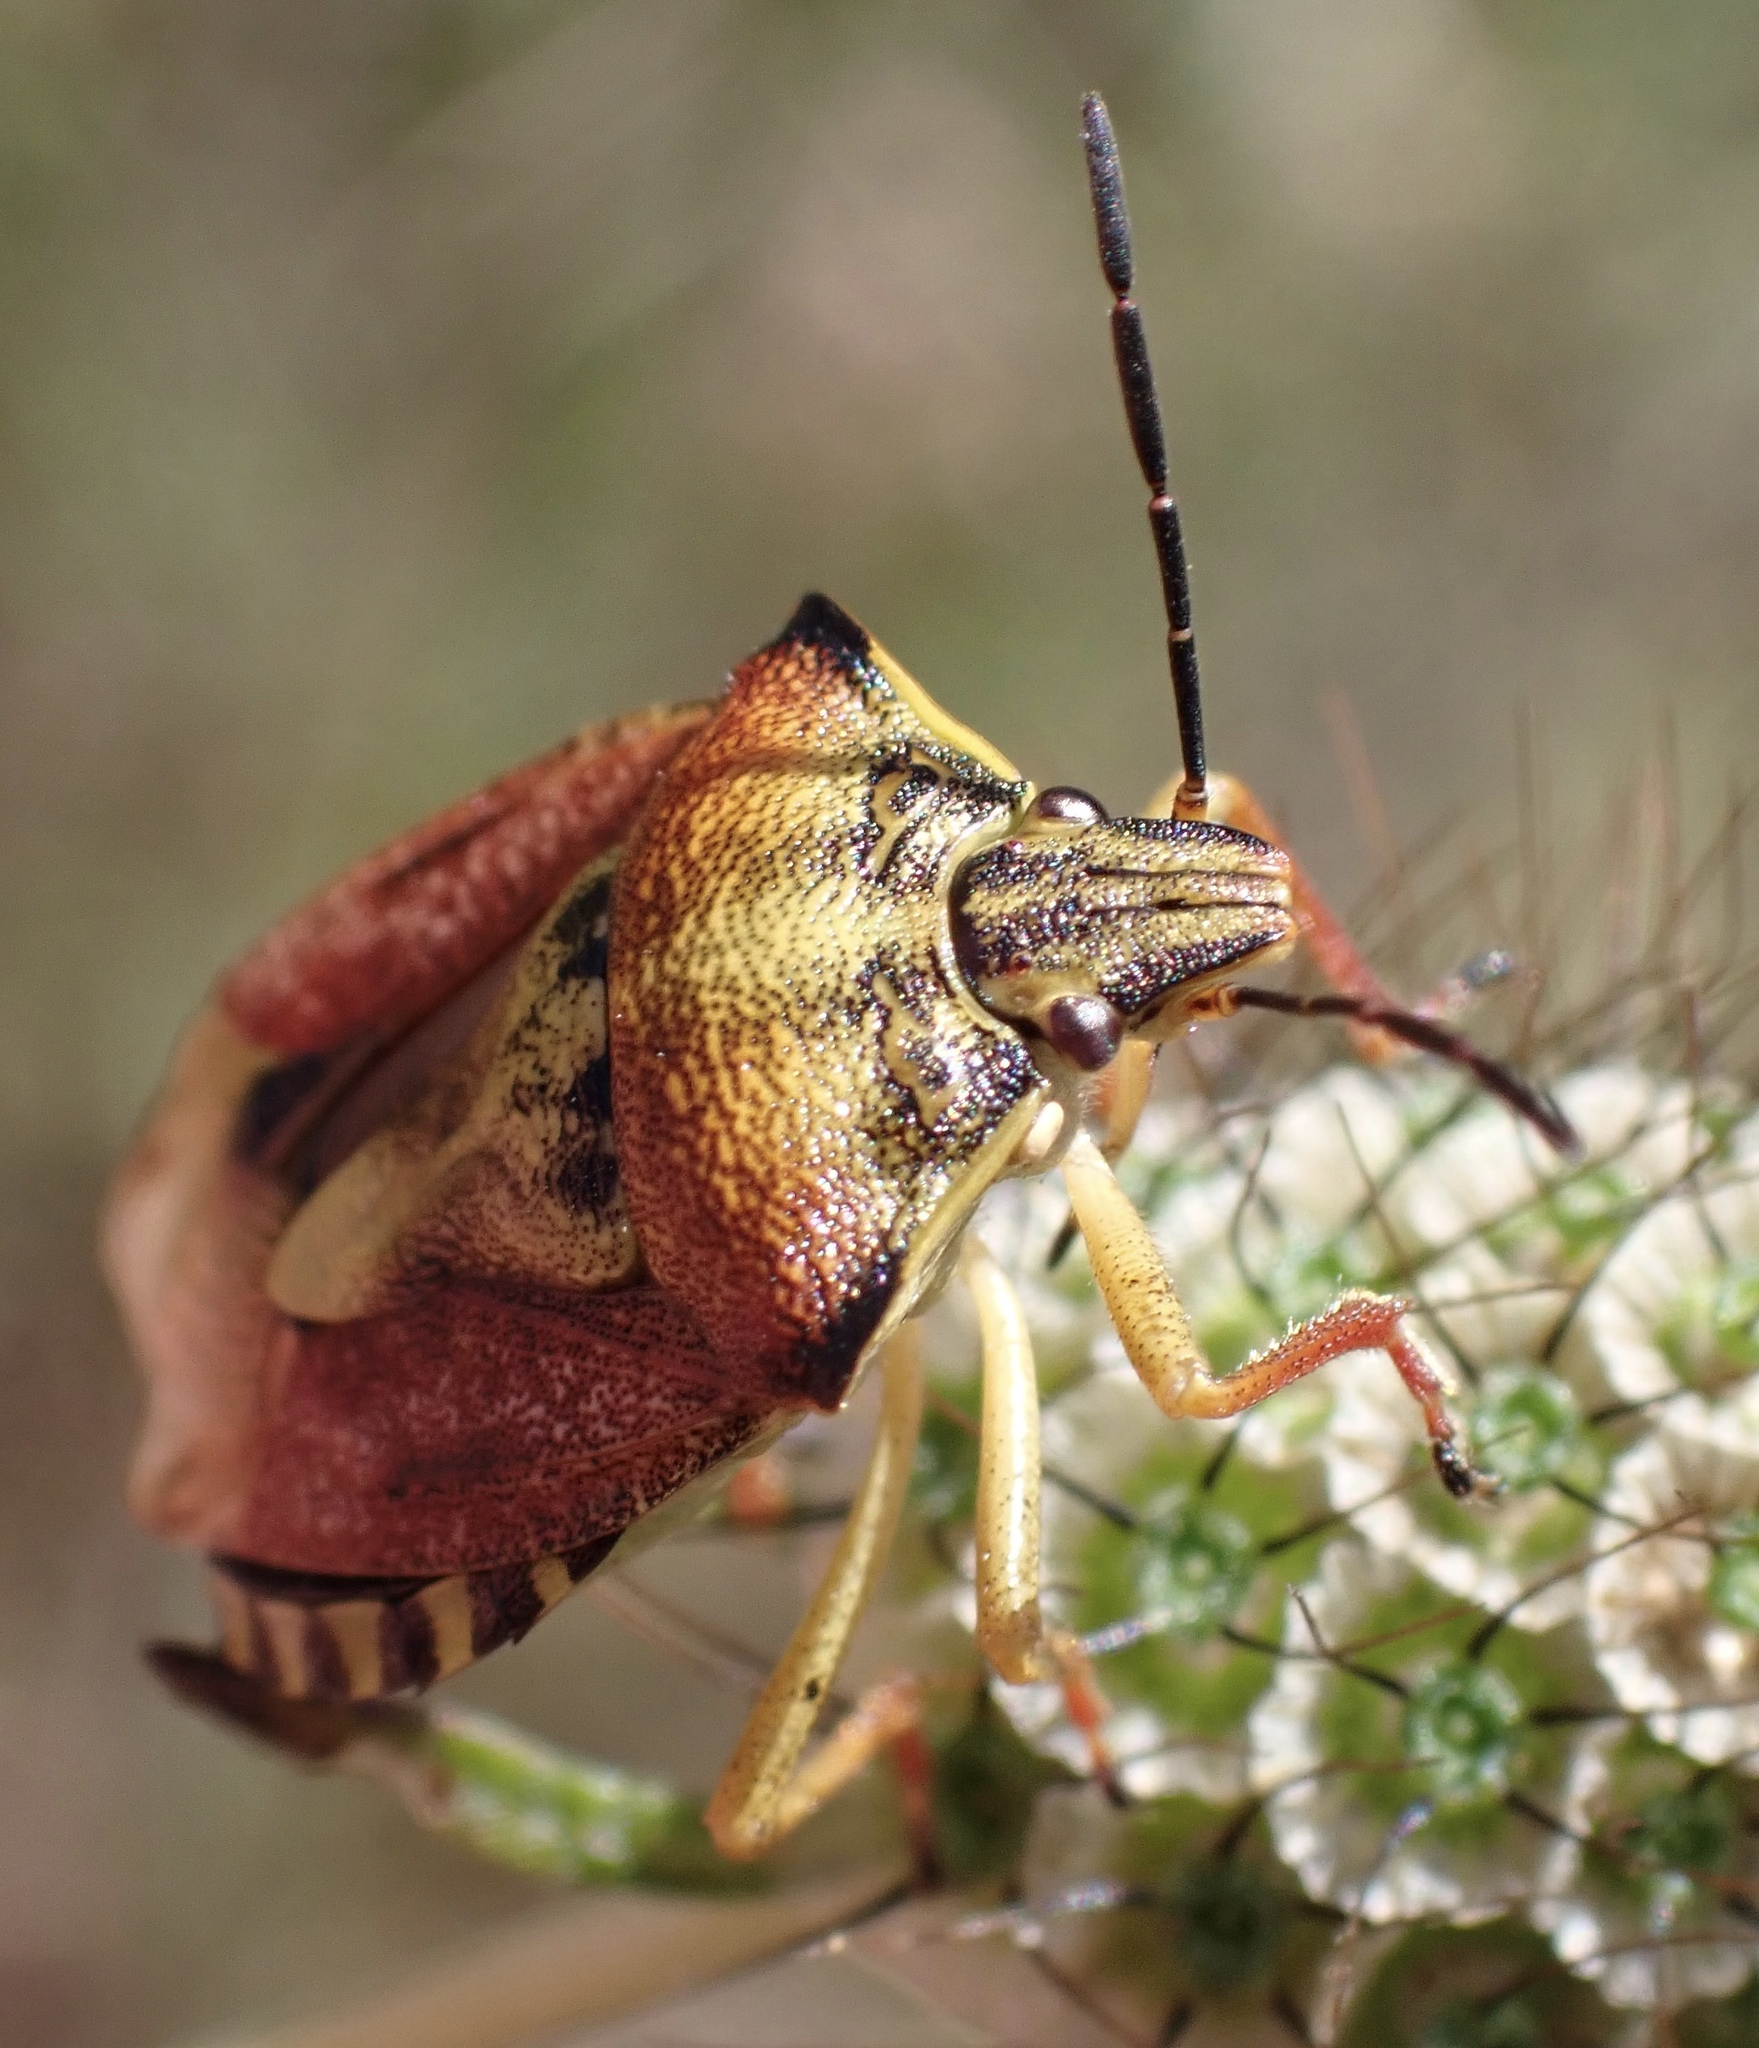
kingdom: Animalia
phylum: Arthropoda
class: Insecta
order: Hemiptera
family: Pentatomidae
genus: Carpocoris
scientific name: Carpocoris purpureipennis
